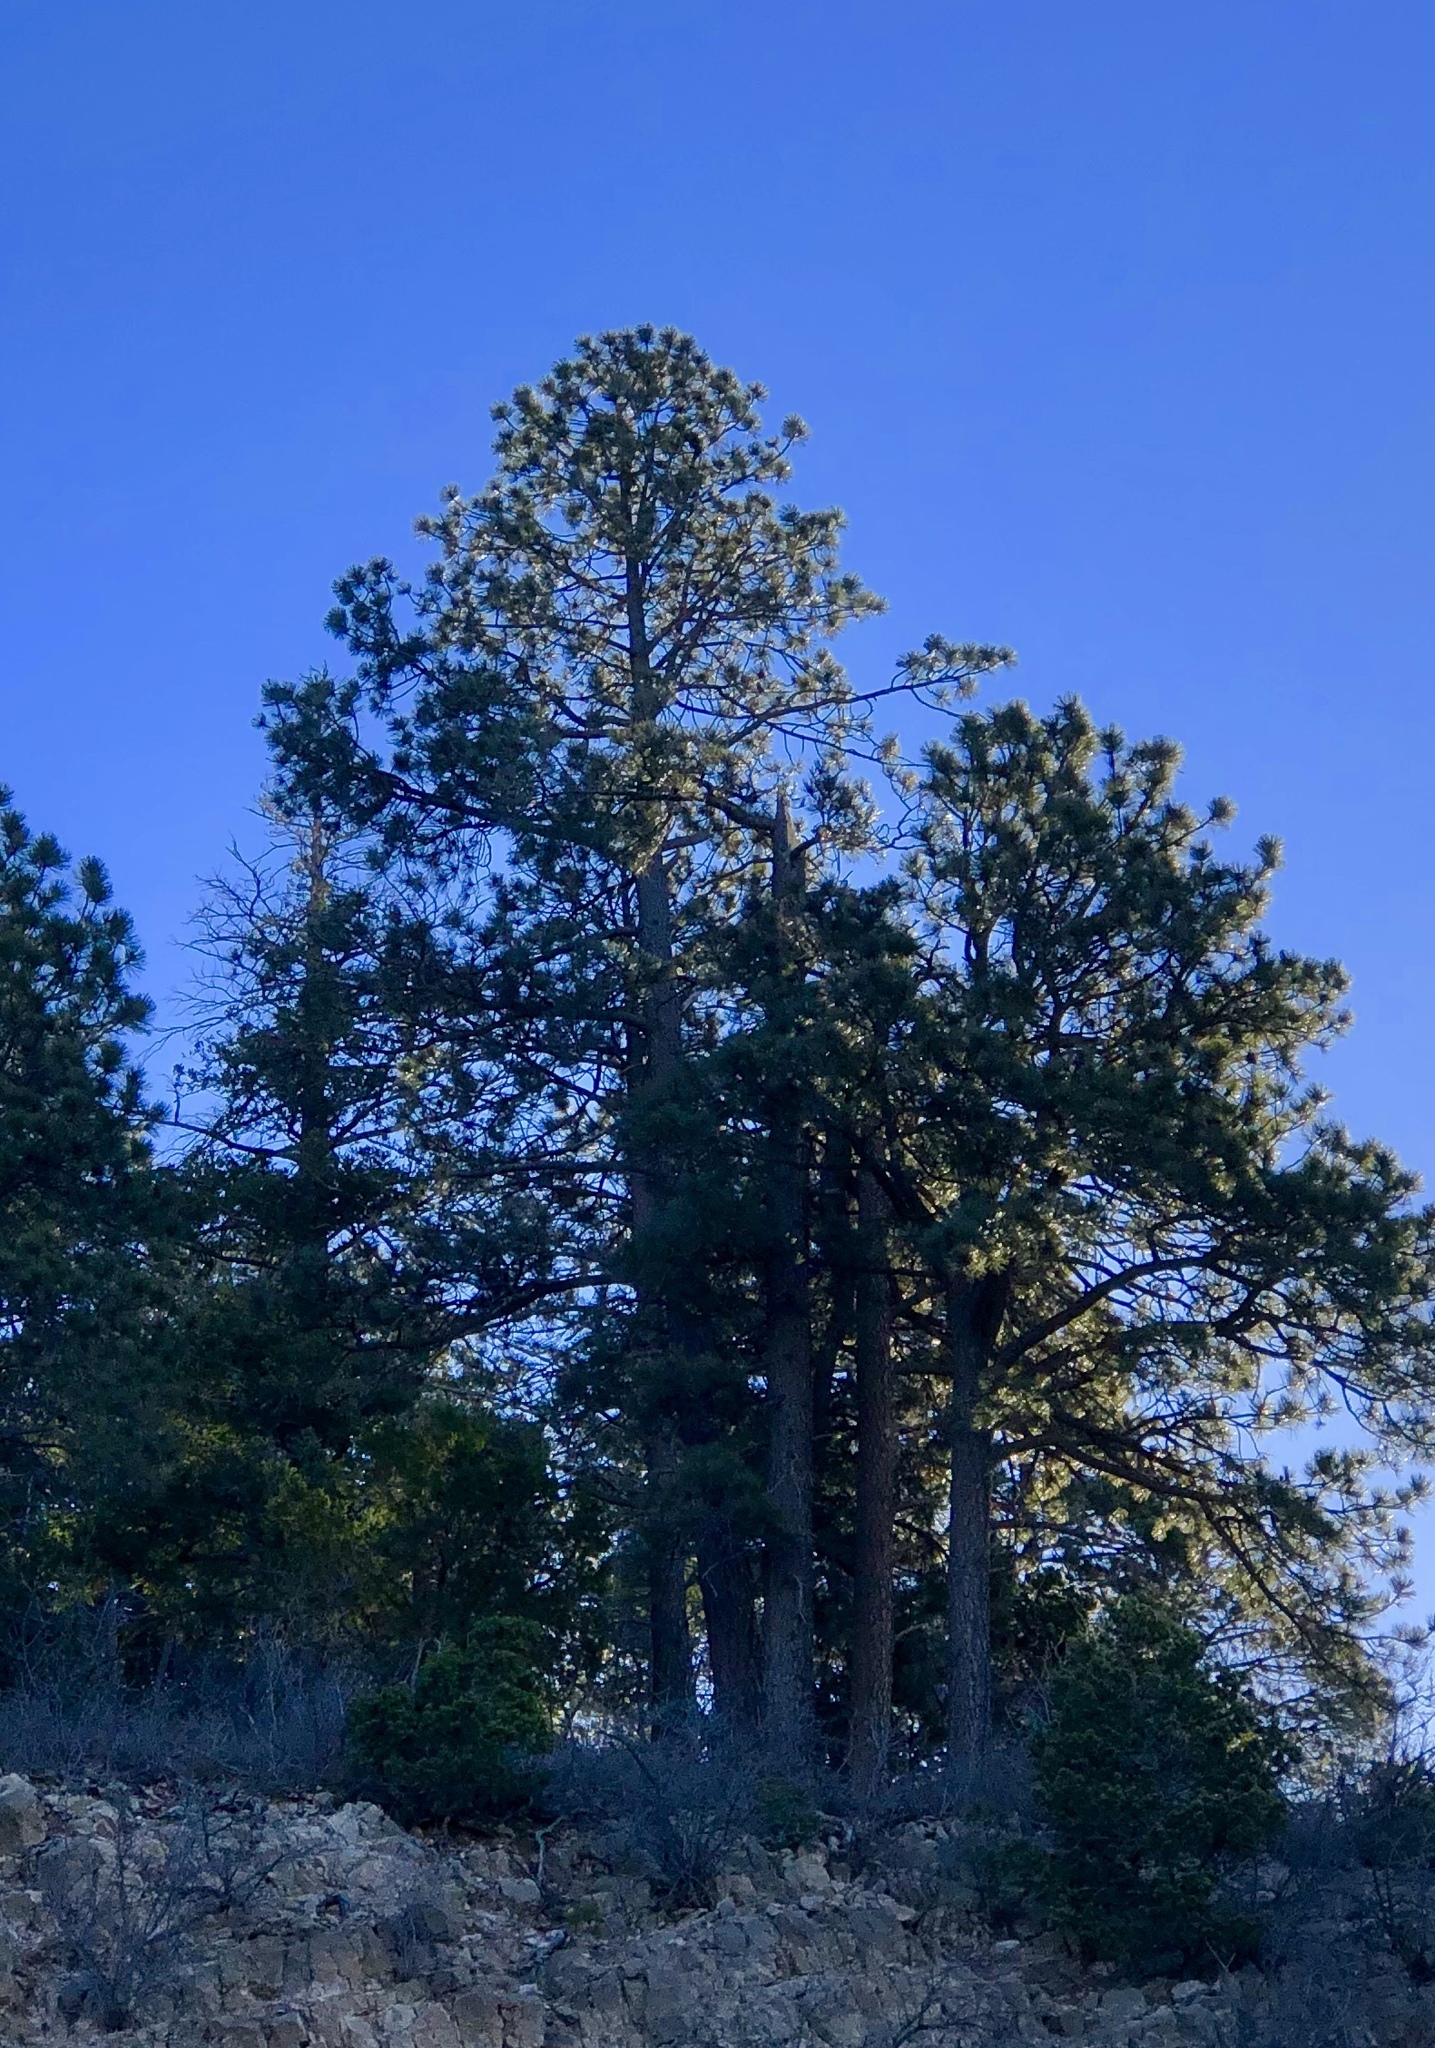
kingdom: Plantae
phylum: Tracheophyta
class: Pinopsida
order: Pinales
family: Pinaceae
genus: Pinus
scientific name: Pinus ponderosa
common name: Western yellow-pine
